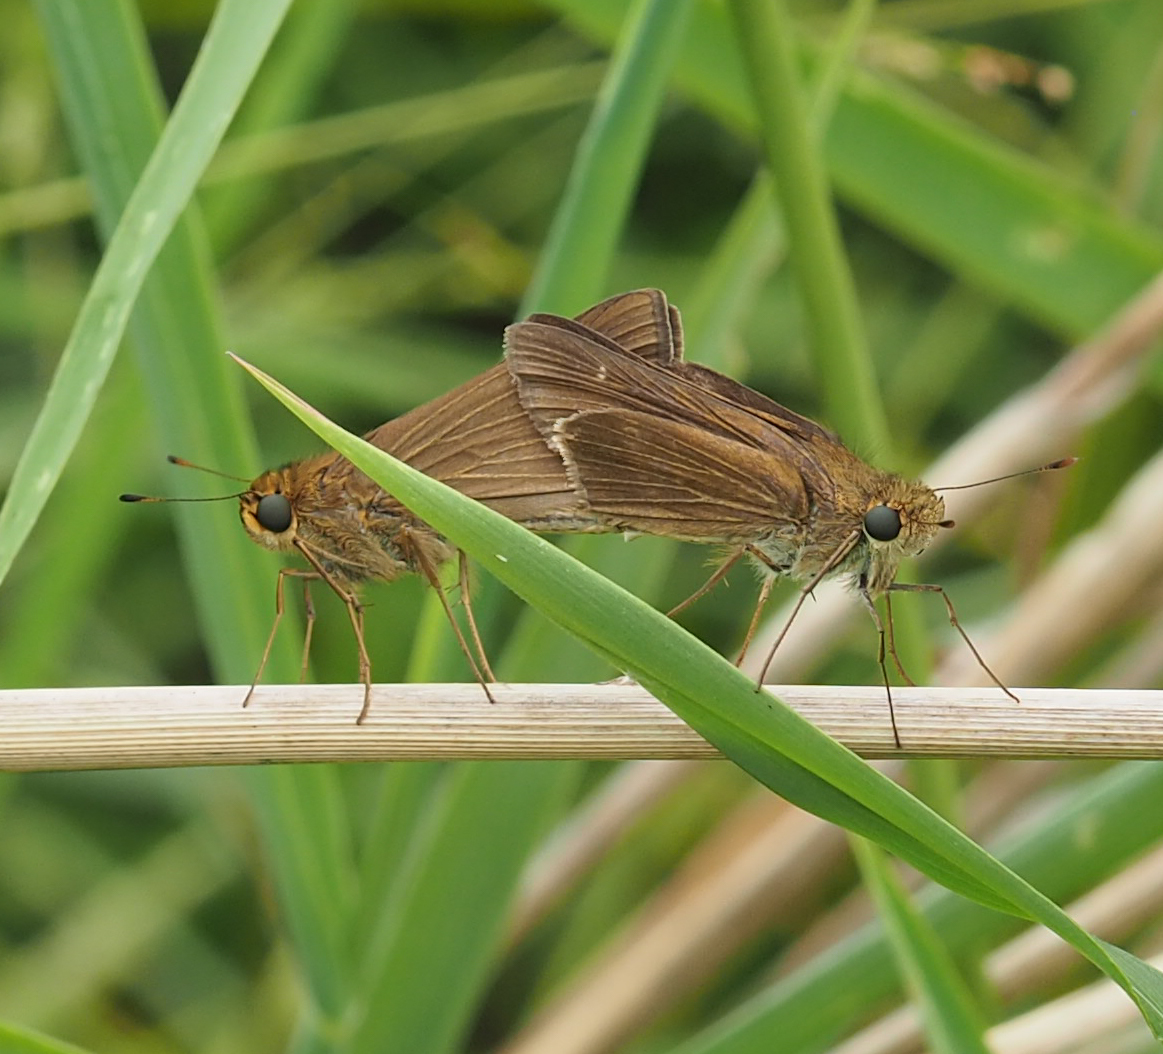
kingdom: Animalia
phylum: Arthropoda
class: Insecta
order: Lepidoptera
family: Hesperiidae
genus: Panoquina
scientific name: Panoquina ocola
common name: Ocola skipper
